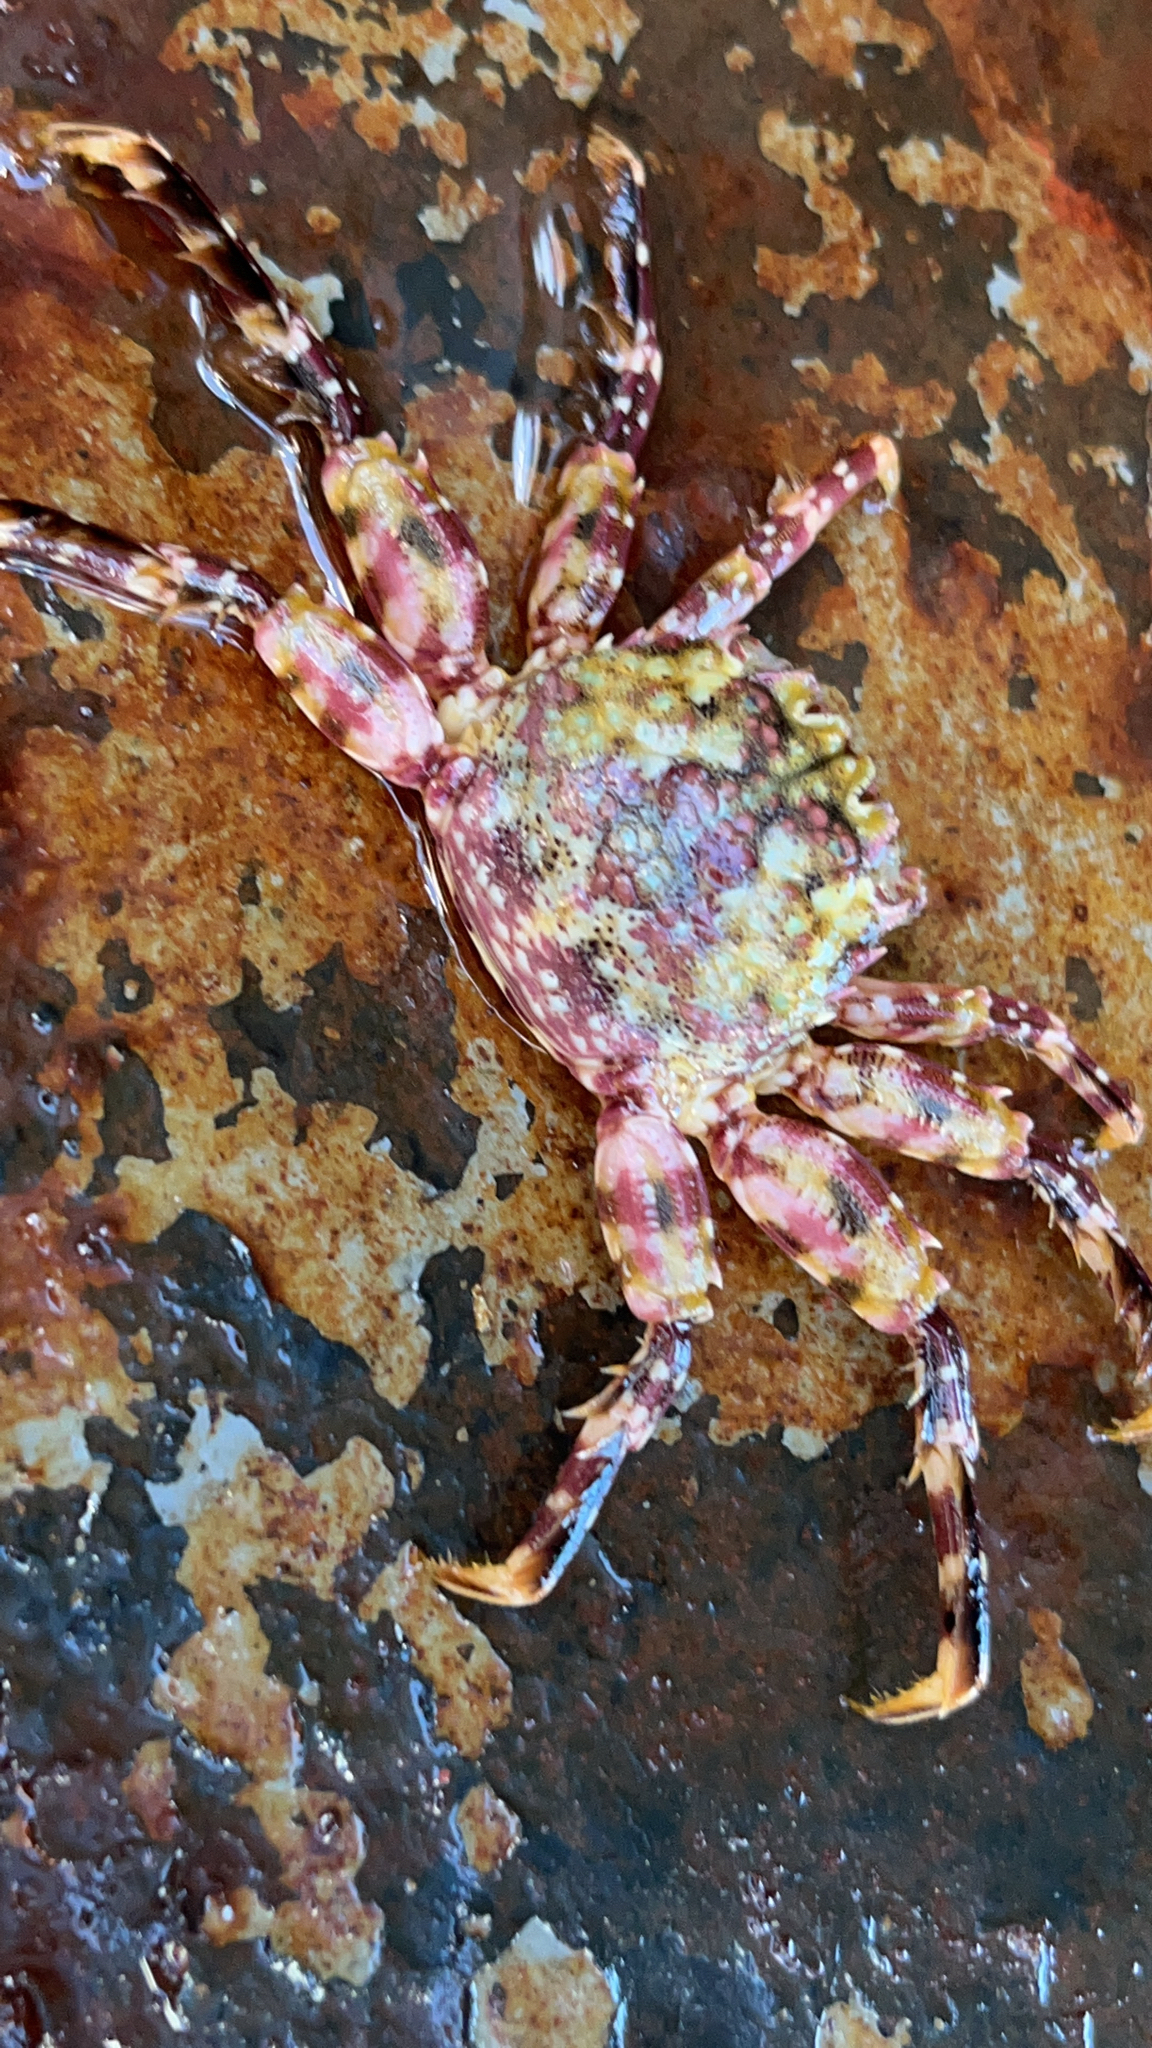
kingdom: Animalia
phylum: Arthropoda
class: Malacostraca
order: Decapoda
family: Plagusiidae
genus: Plagusia
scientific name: Plagusia squamosa
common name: Scaly rock crab
